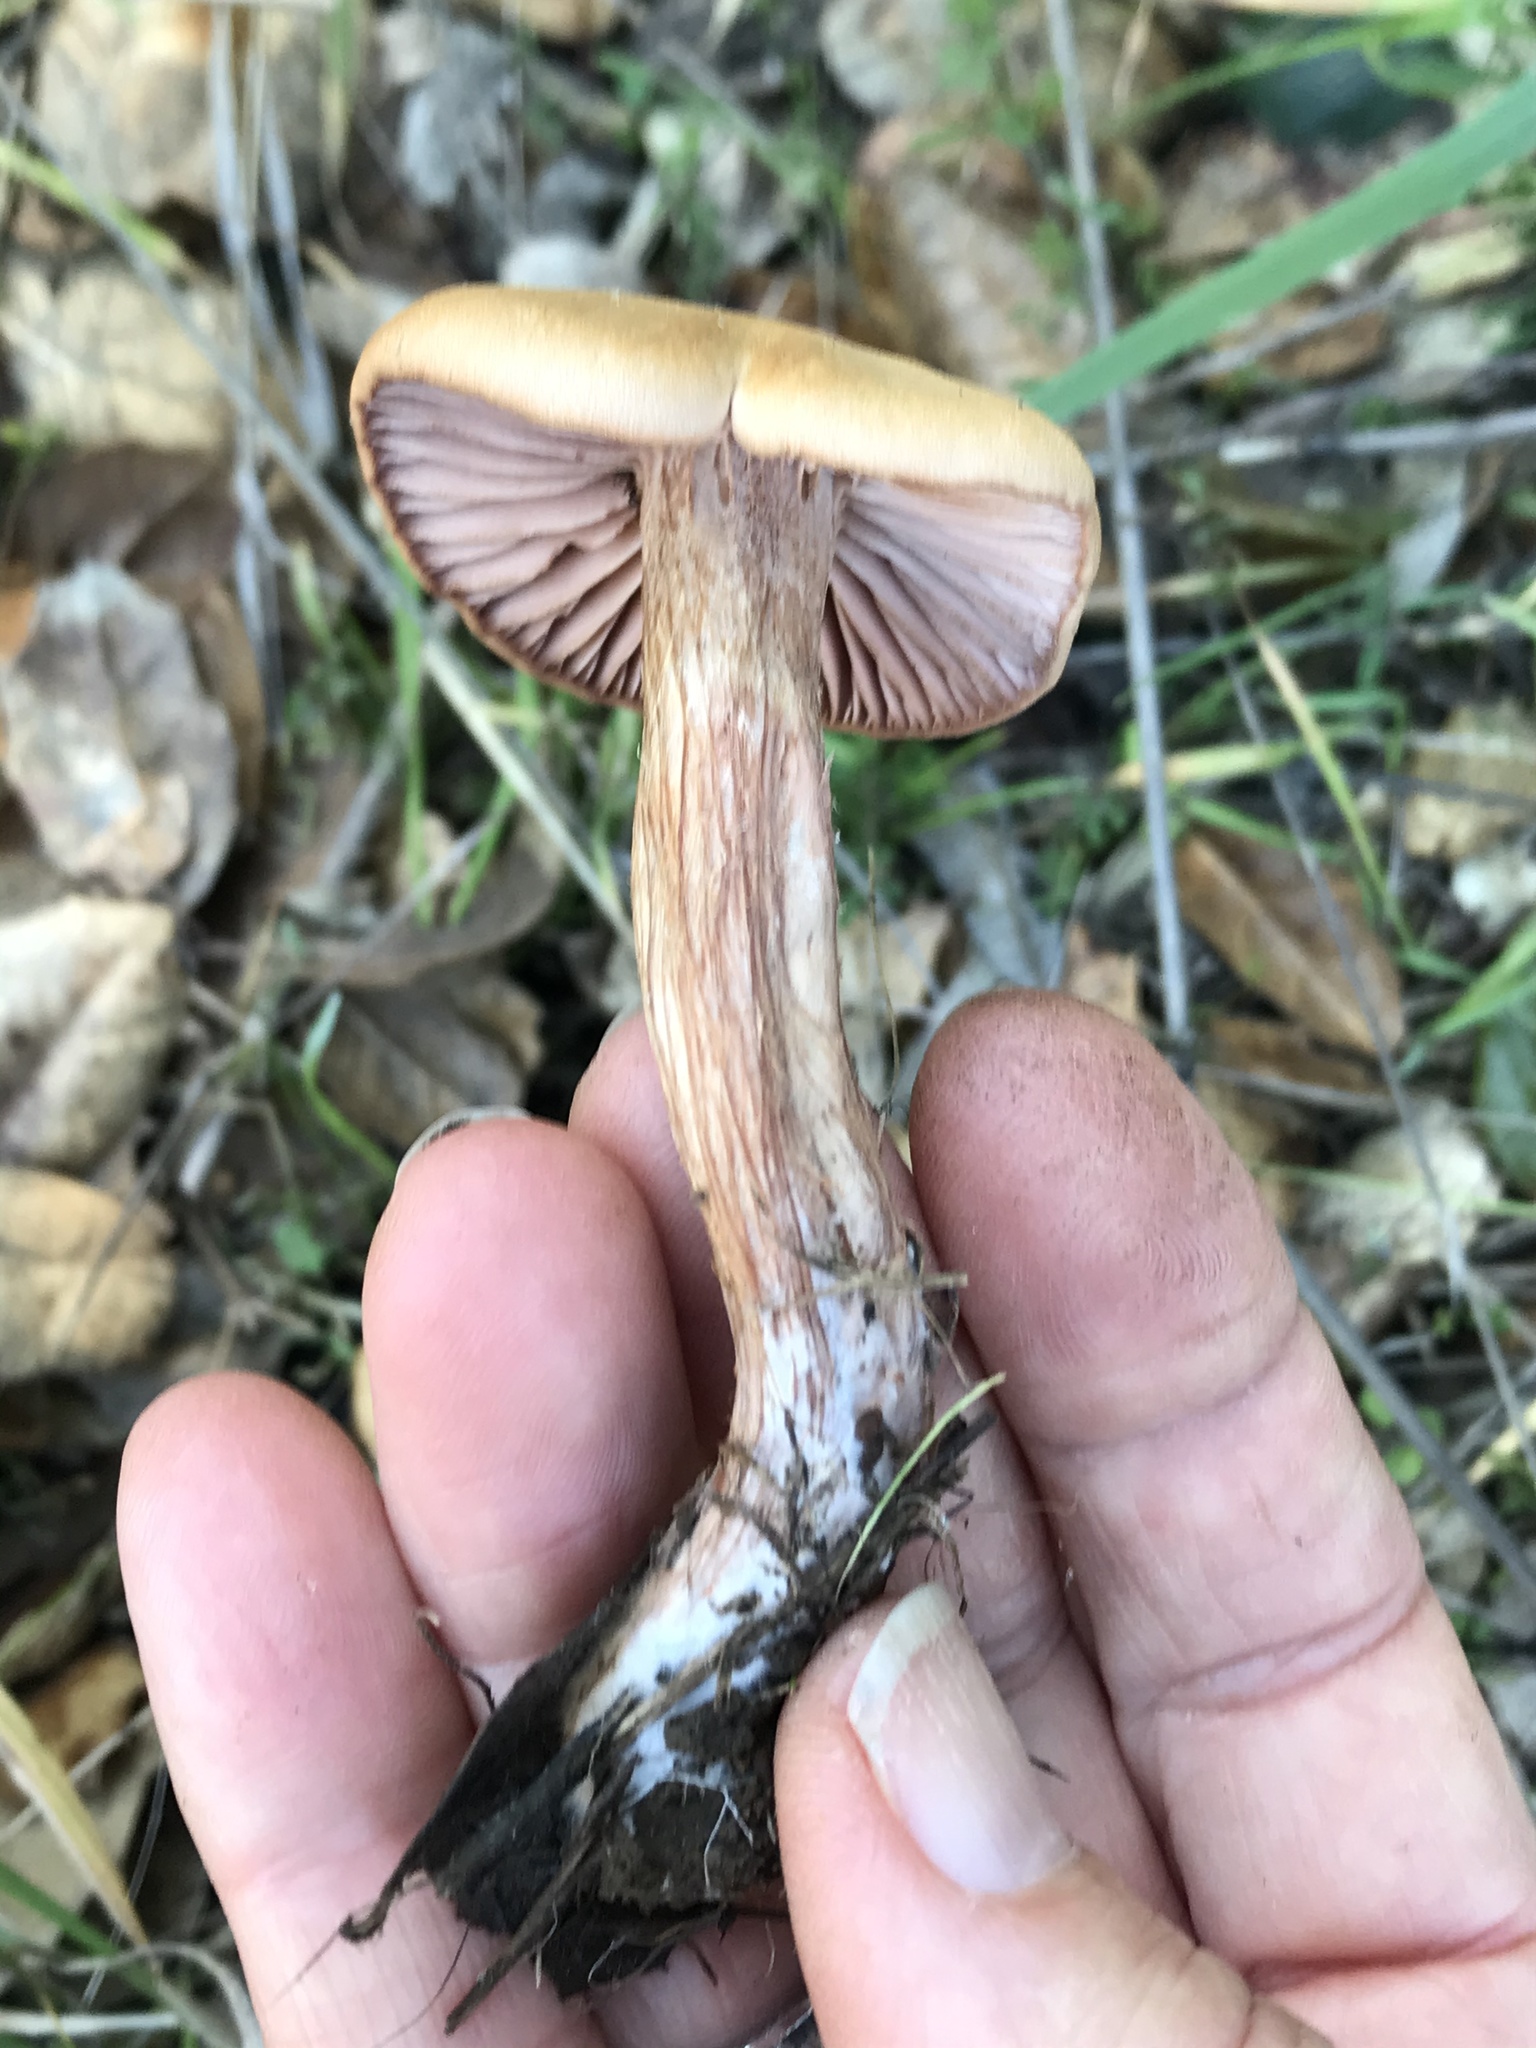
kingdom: Fungi
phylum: Basidiomycota
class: Agaricomycetes
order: Agaricales
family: Hydnangiaceae
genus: Laccaria
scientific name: Laccaria amethysteo-occidentalis
